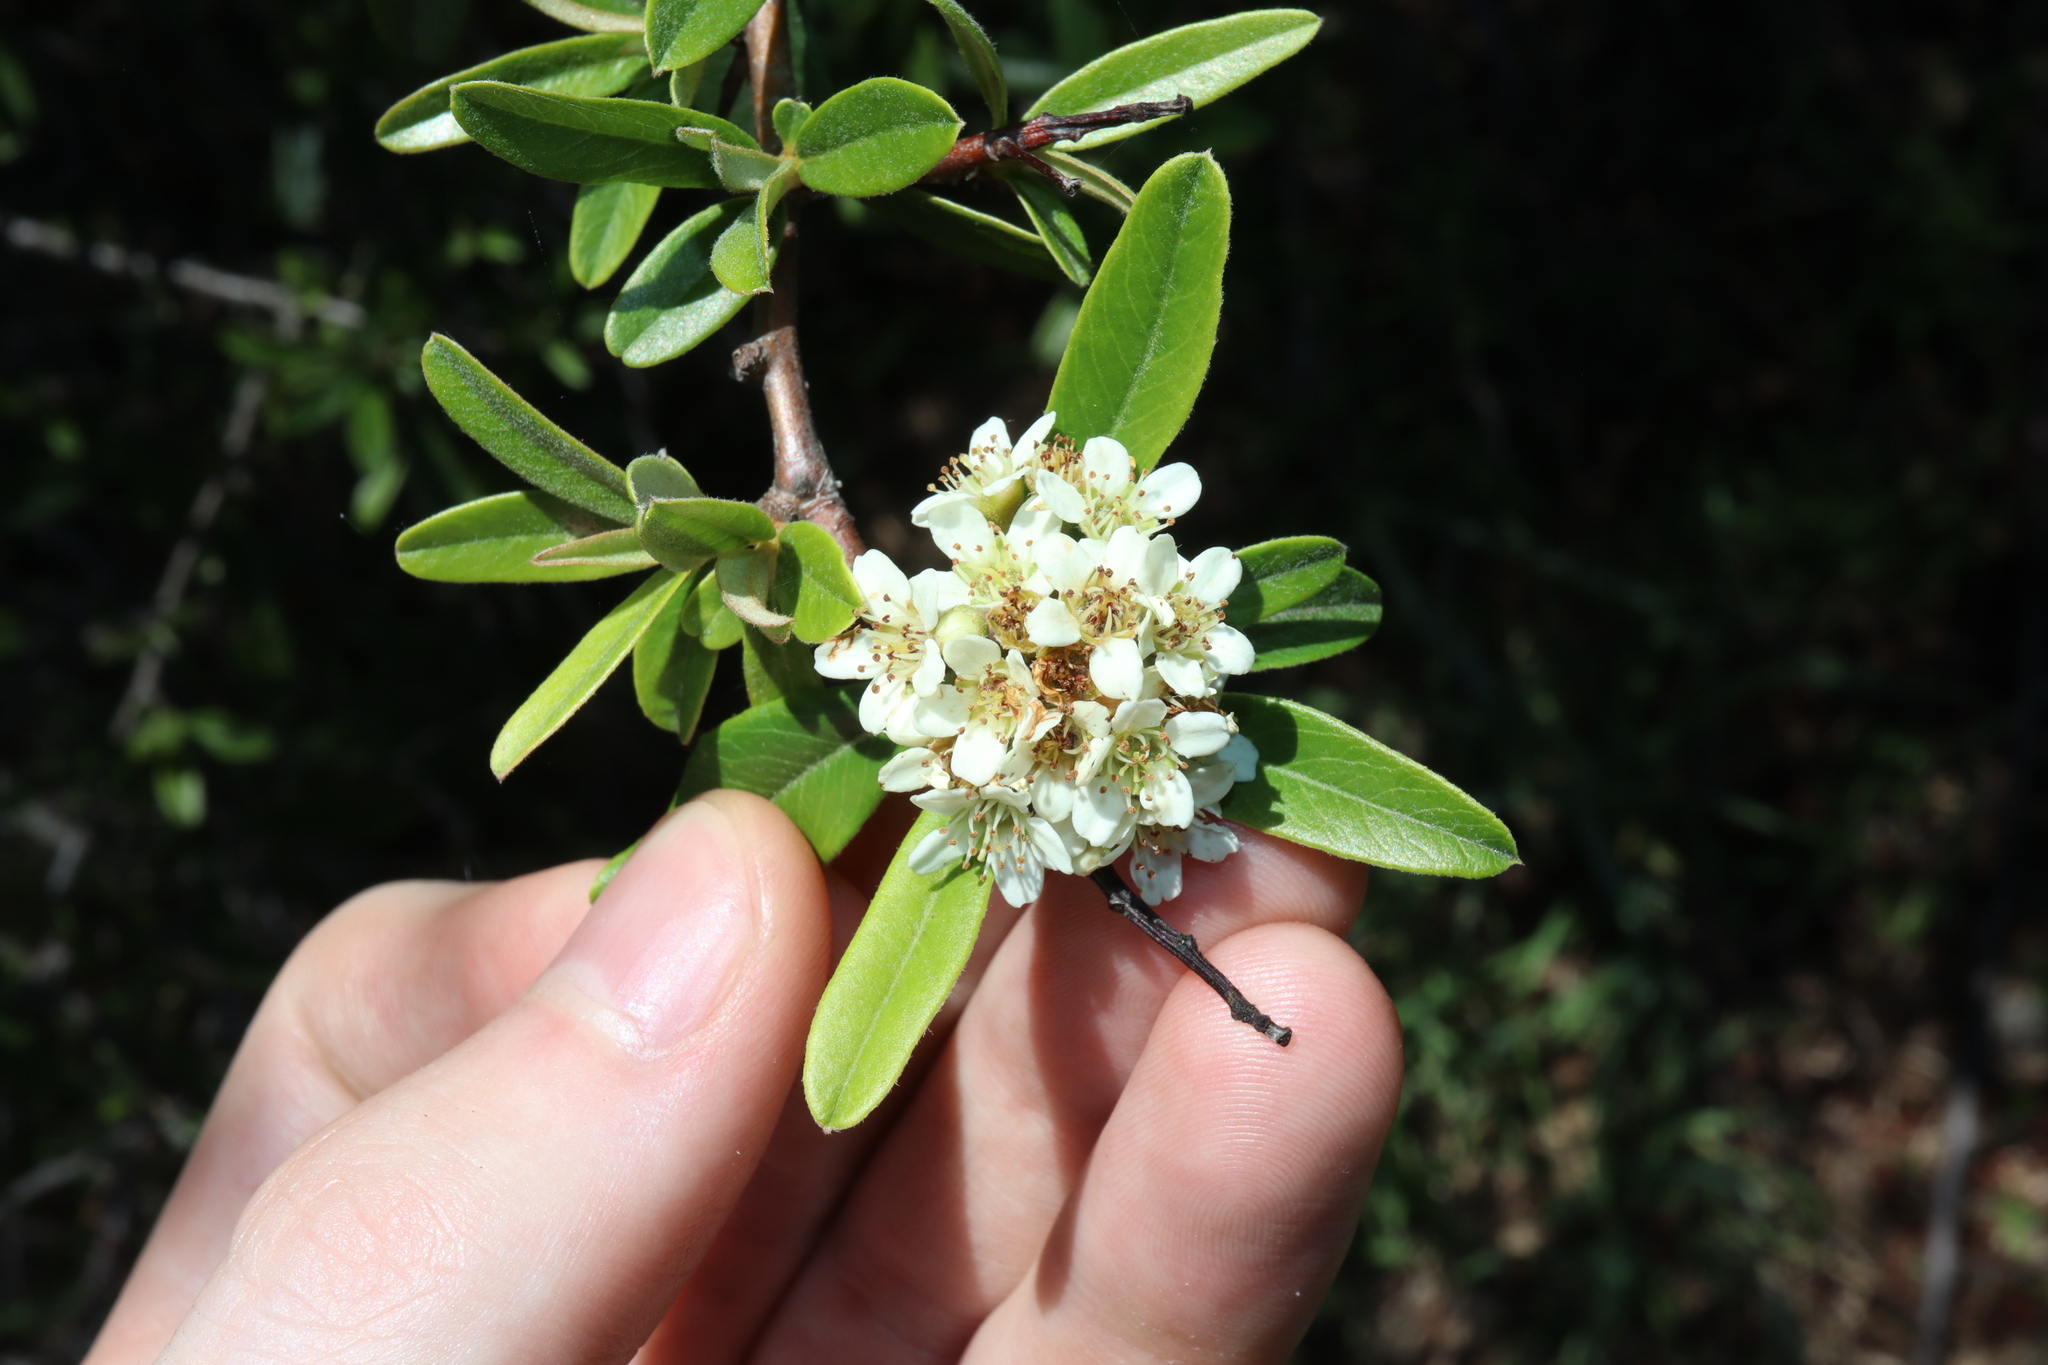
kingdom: Plantae
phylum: Tracheophyta
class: Magnoliopsida
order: Rosales
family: Rosaceae
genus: Pyracantha
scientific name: Pyracantha angustifolia
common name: Narrowleaf firethorn
